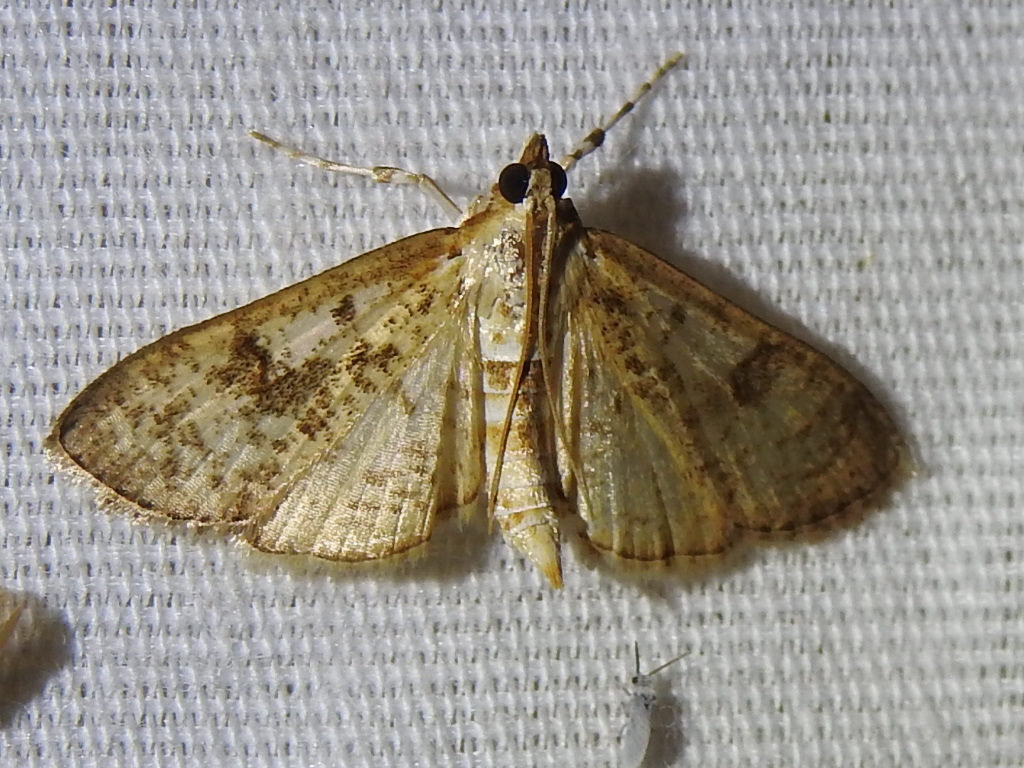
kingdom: Animalia
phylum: Arthropoda
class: Insecta
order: Lepidoptera
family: Crambidae
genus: Palpita
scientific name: Palpita magniferalis
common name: Splendid palpita moth
